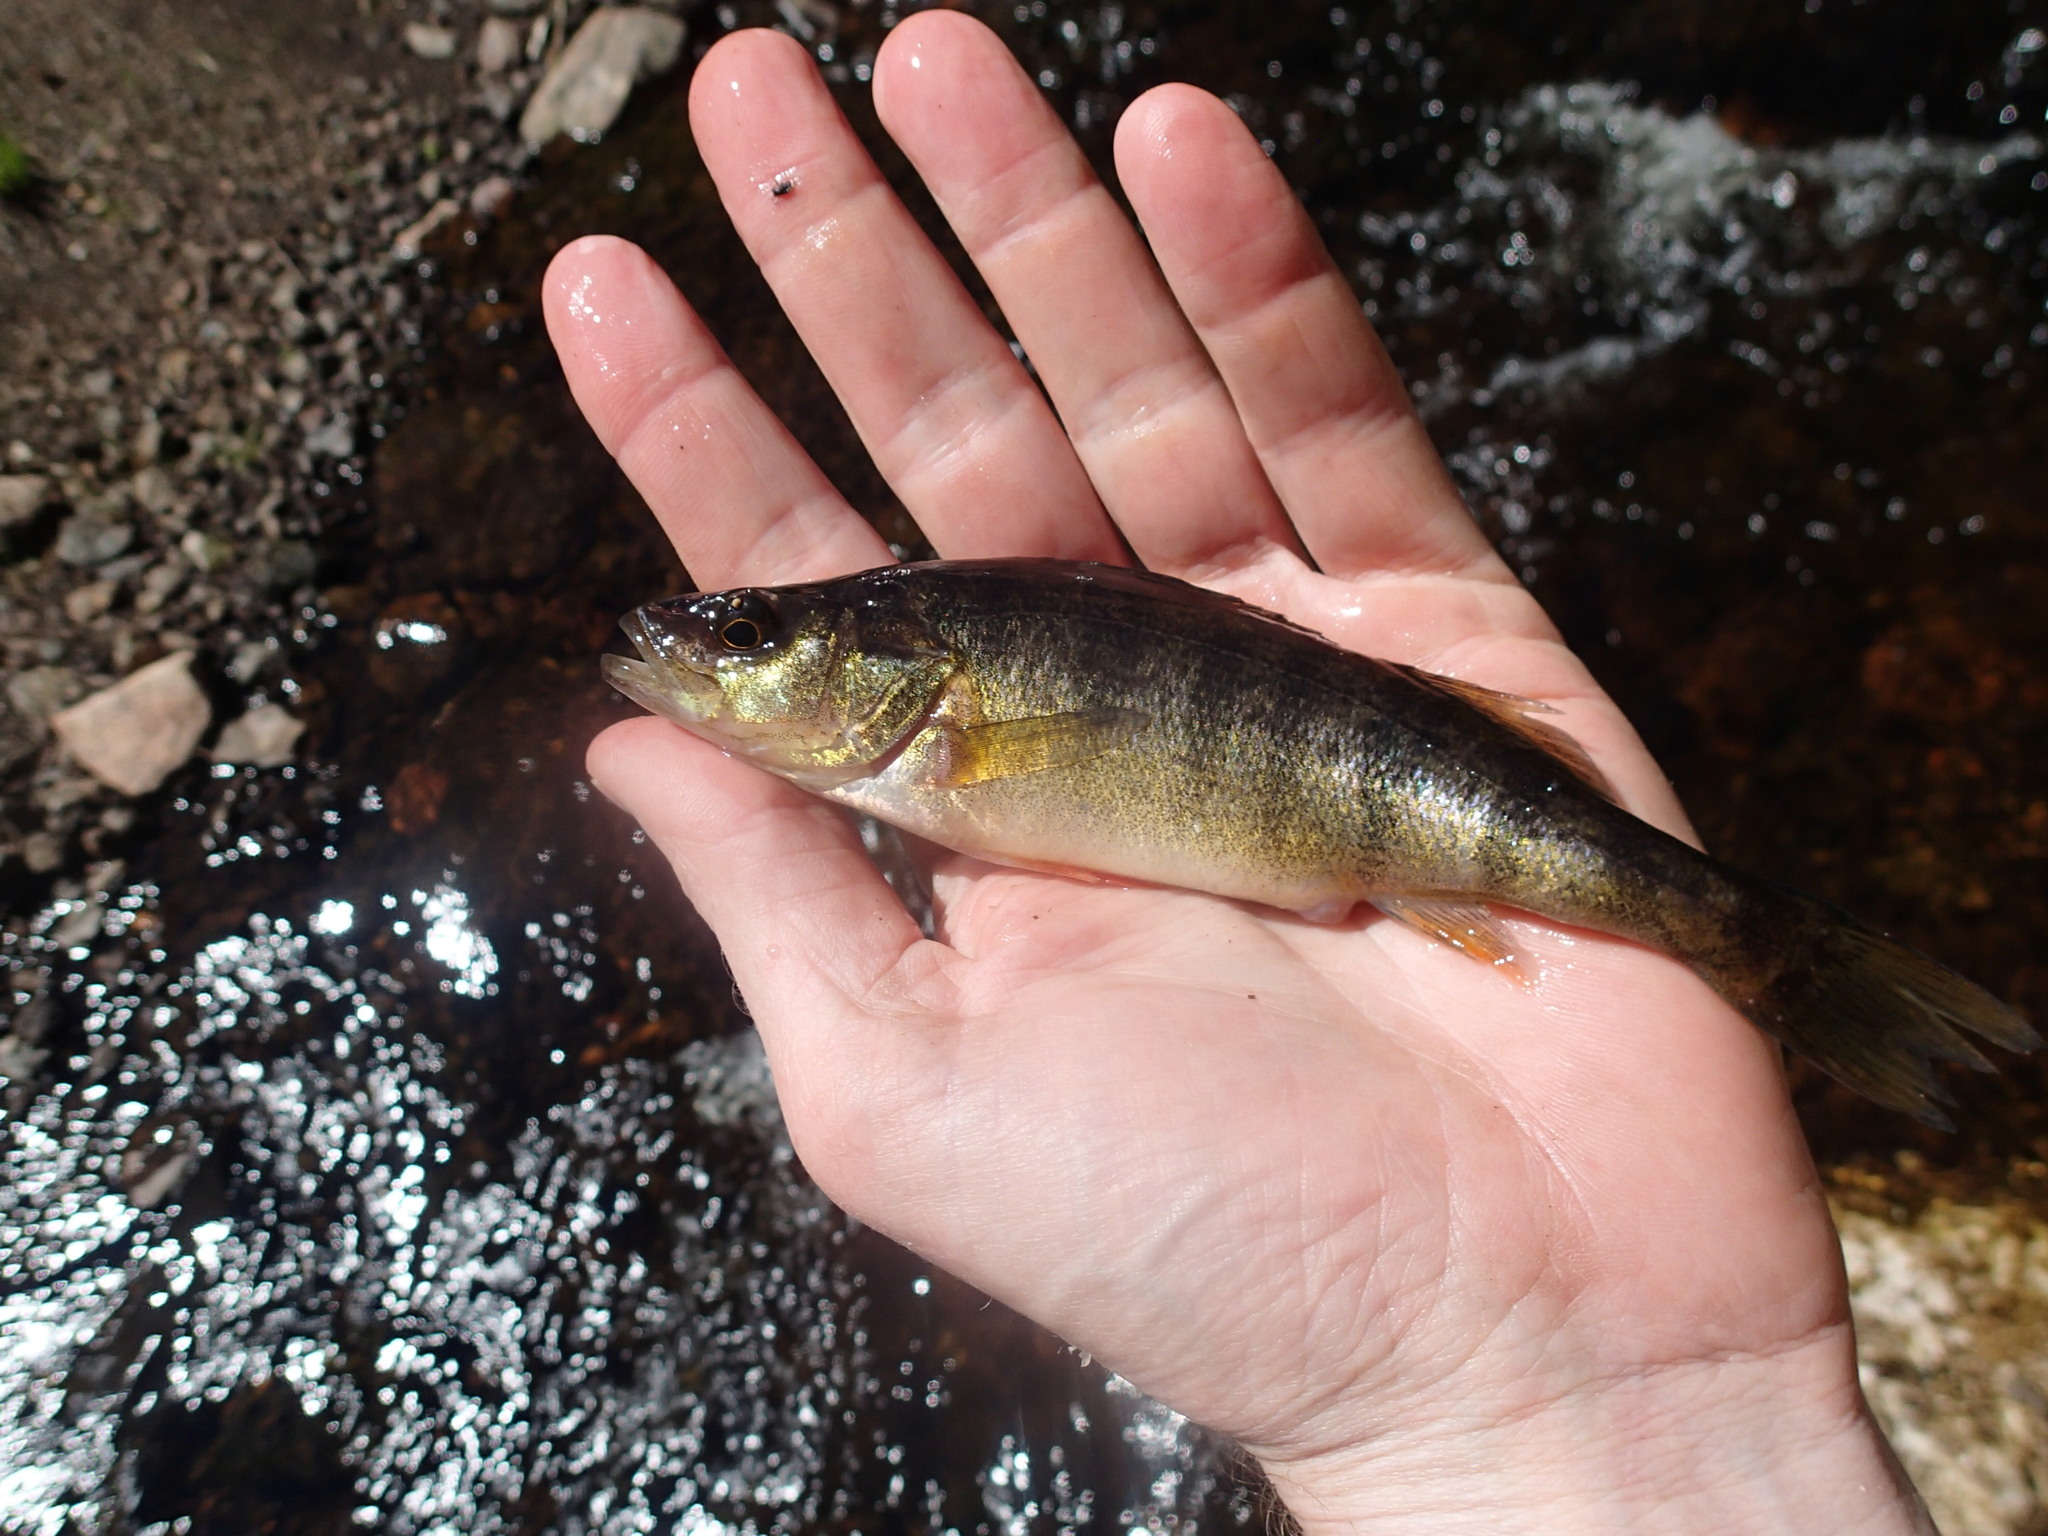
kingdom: Animalia
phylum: Chordata
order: Perciformes
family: Percidae
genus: Perca
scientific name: Perca flavescens
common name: Yellow perch
